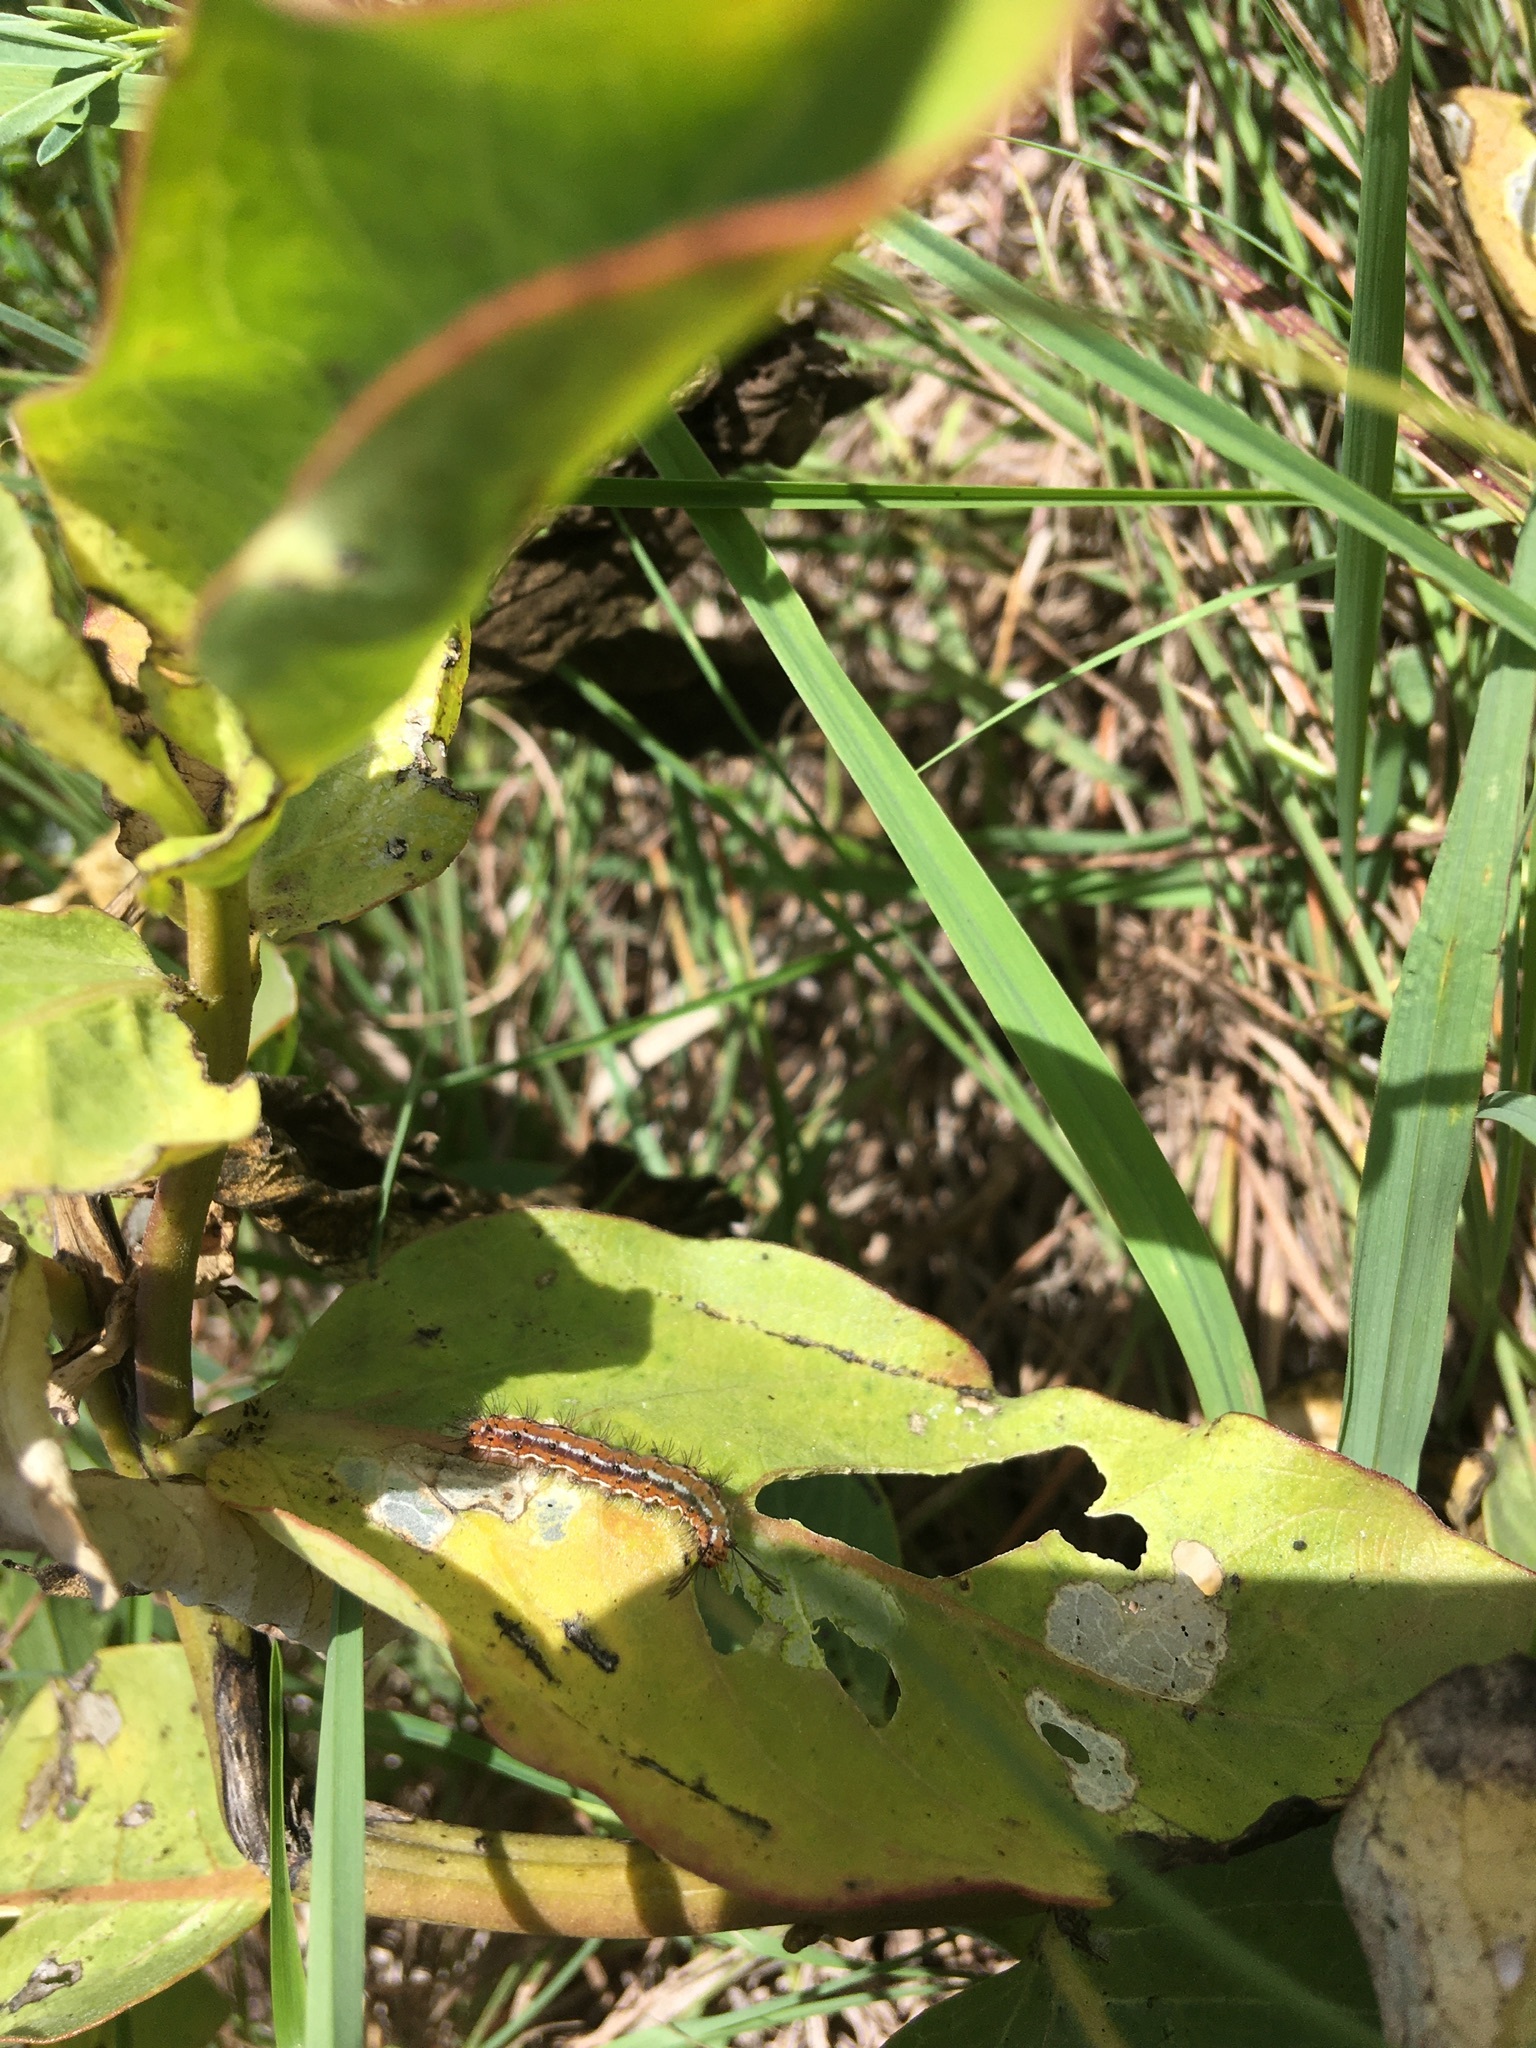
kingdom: Animalia
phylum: Arthropoda
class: Insecta
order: Lepidoptera
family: Erebidae
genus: Pagara
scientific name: Pagara simplex
